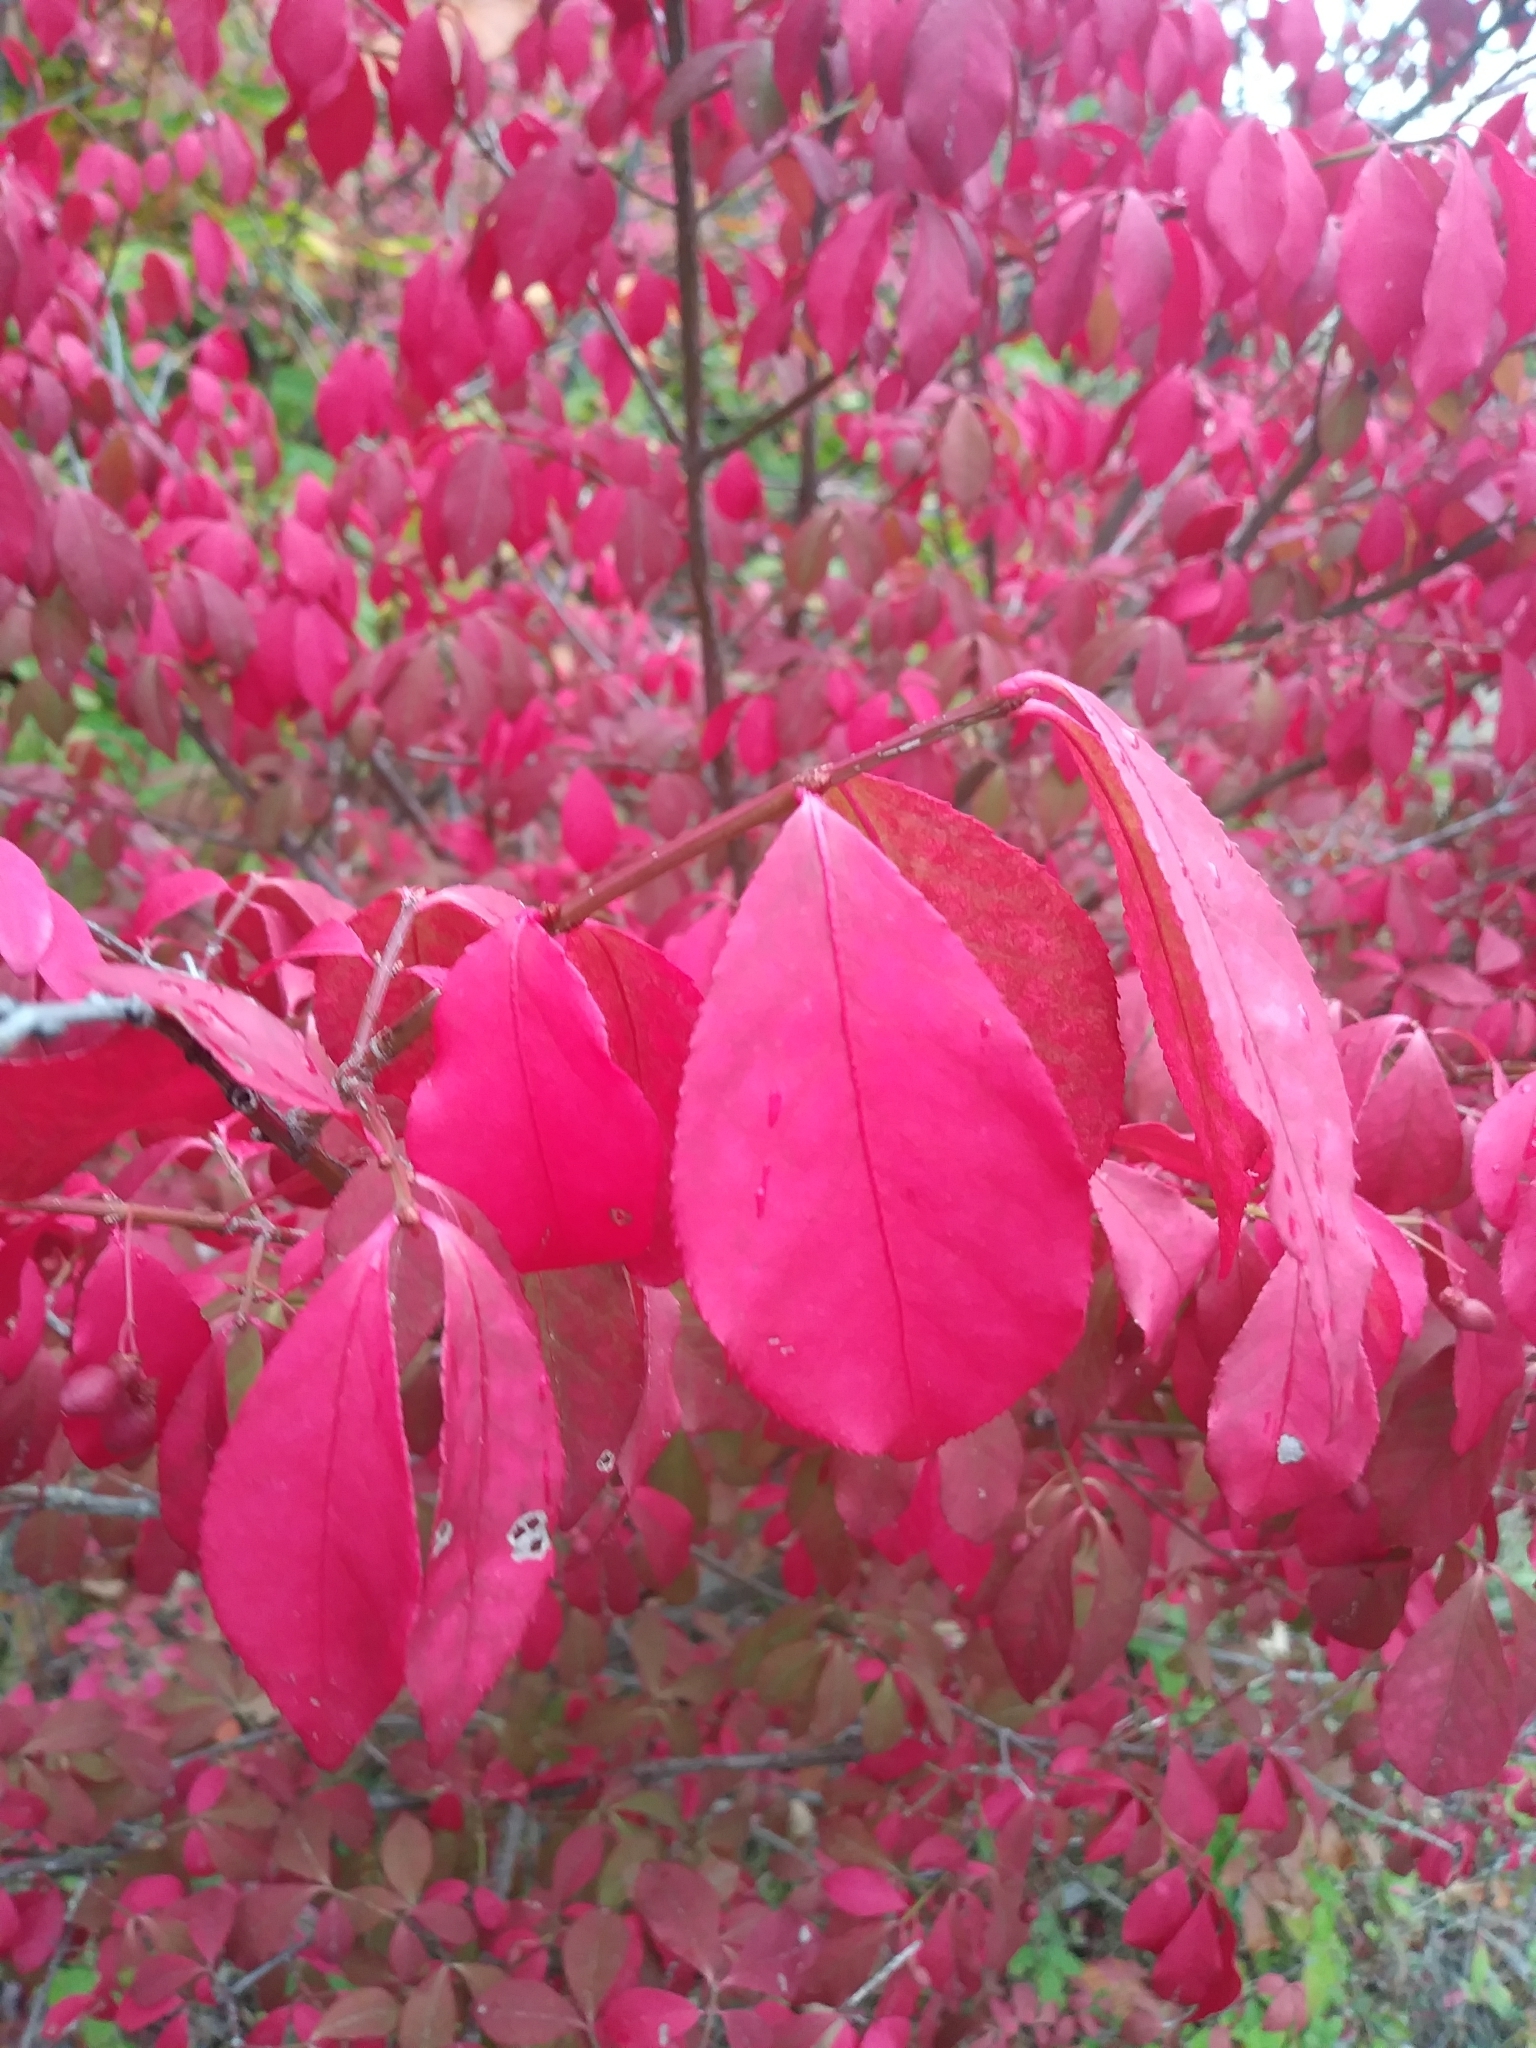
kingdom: Plantae
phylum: Tracheophyta
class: Magnoliopsida
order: Celastrales
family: Celastraceae
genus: Euonymus
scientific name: Euonymus alatus
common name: Winged euonymus
